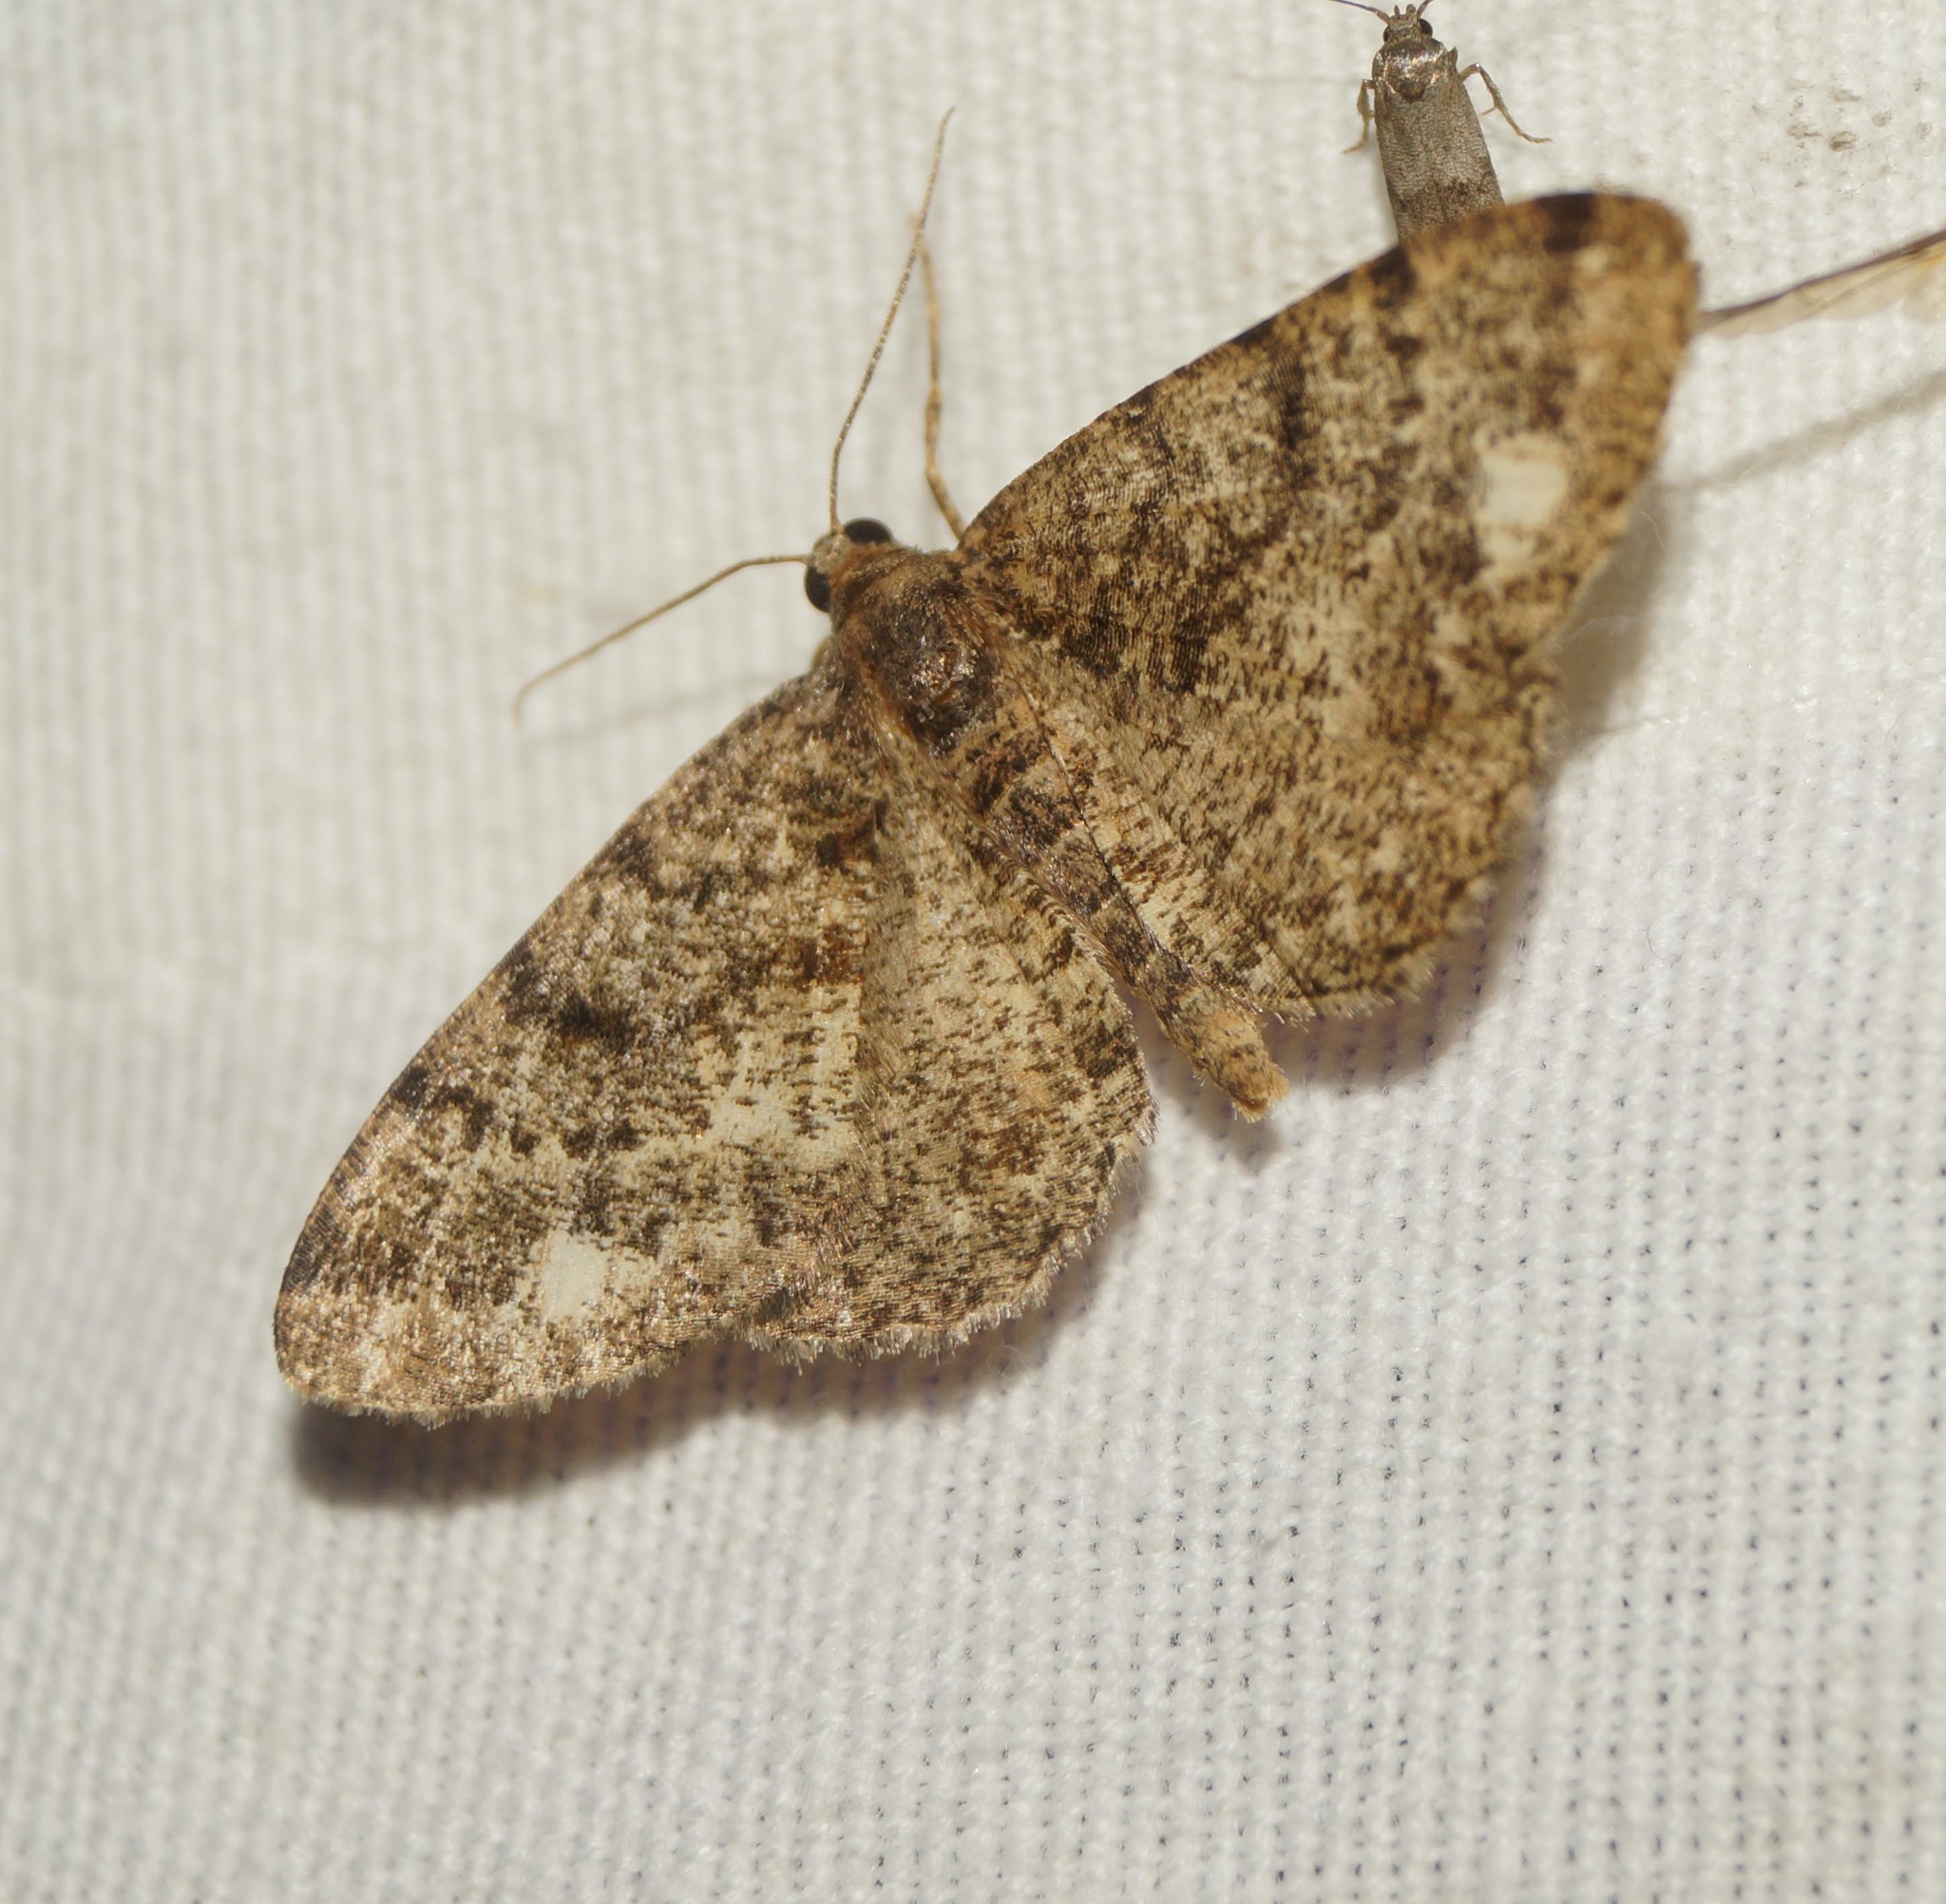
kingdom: Animalia
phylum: Arthropoda
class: Insecta
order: Lepidoptera
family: Geometridae
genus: Parectropis
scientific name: Parectropis similaria
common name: Brindled white-spot
